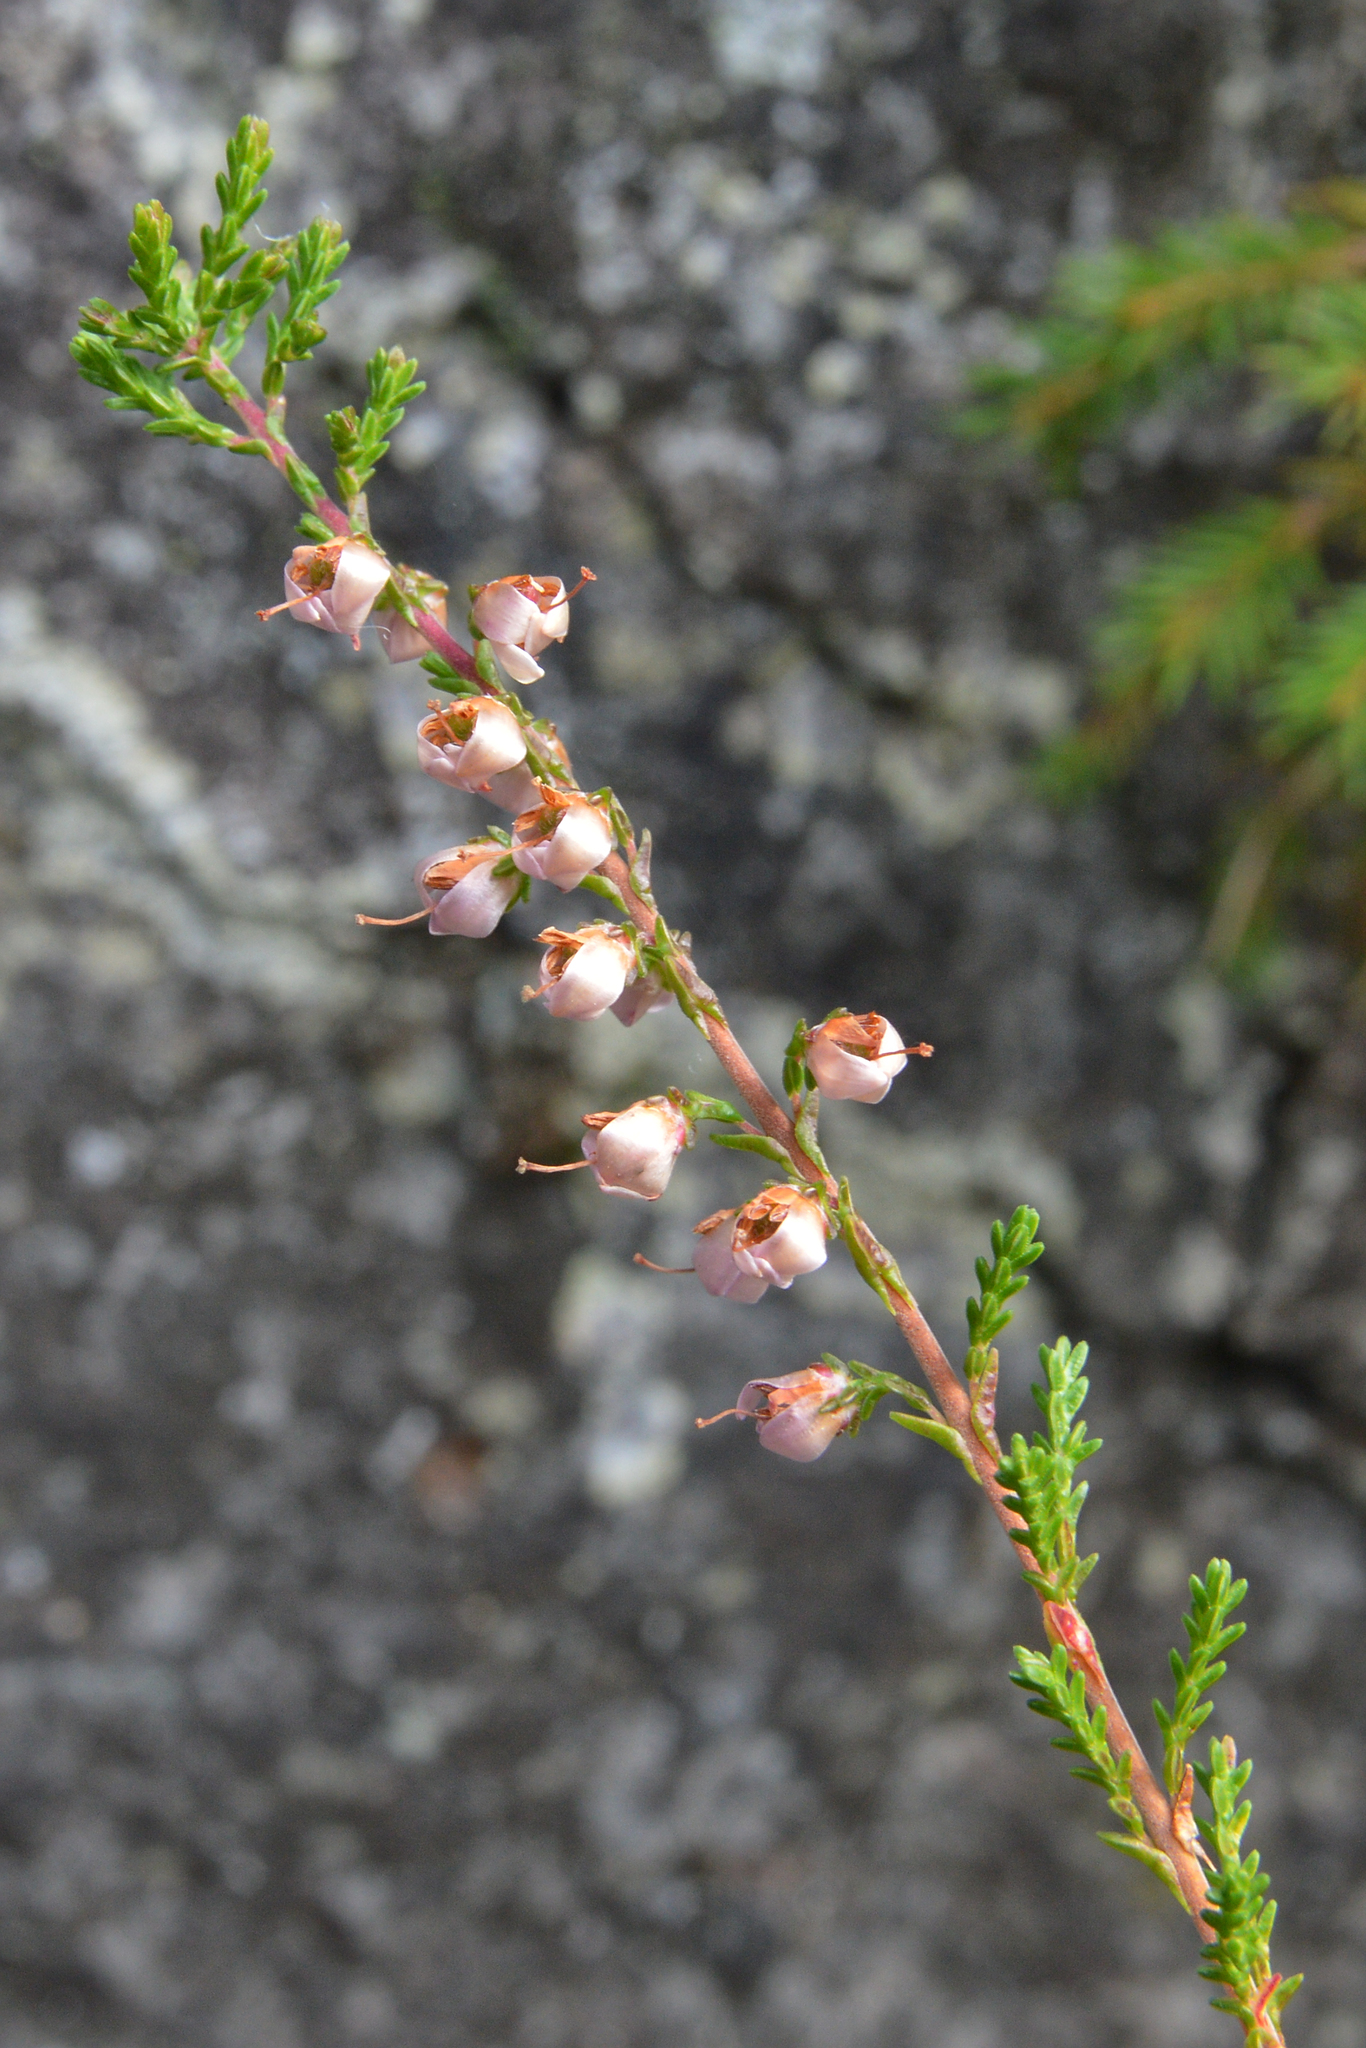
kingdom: Plantae
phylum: Tracheophyta
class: Magnoliopsida
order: Ericales
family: Ericaceae
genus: Calluna
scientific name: Calluna vulgaris
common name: Heather
